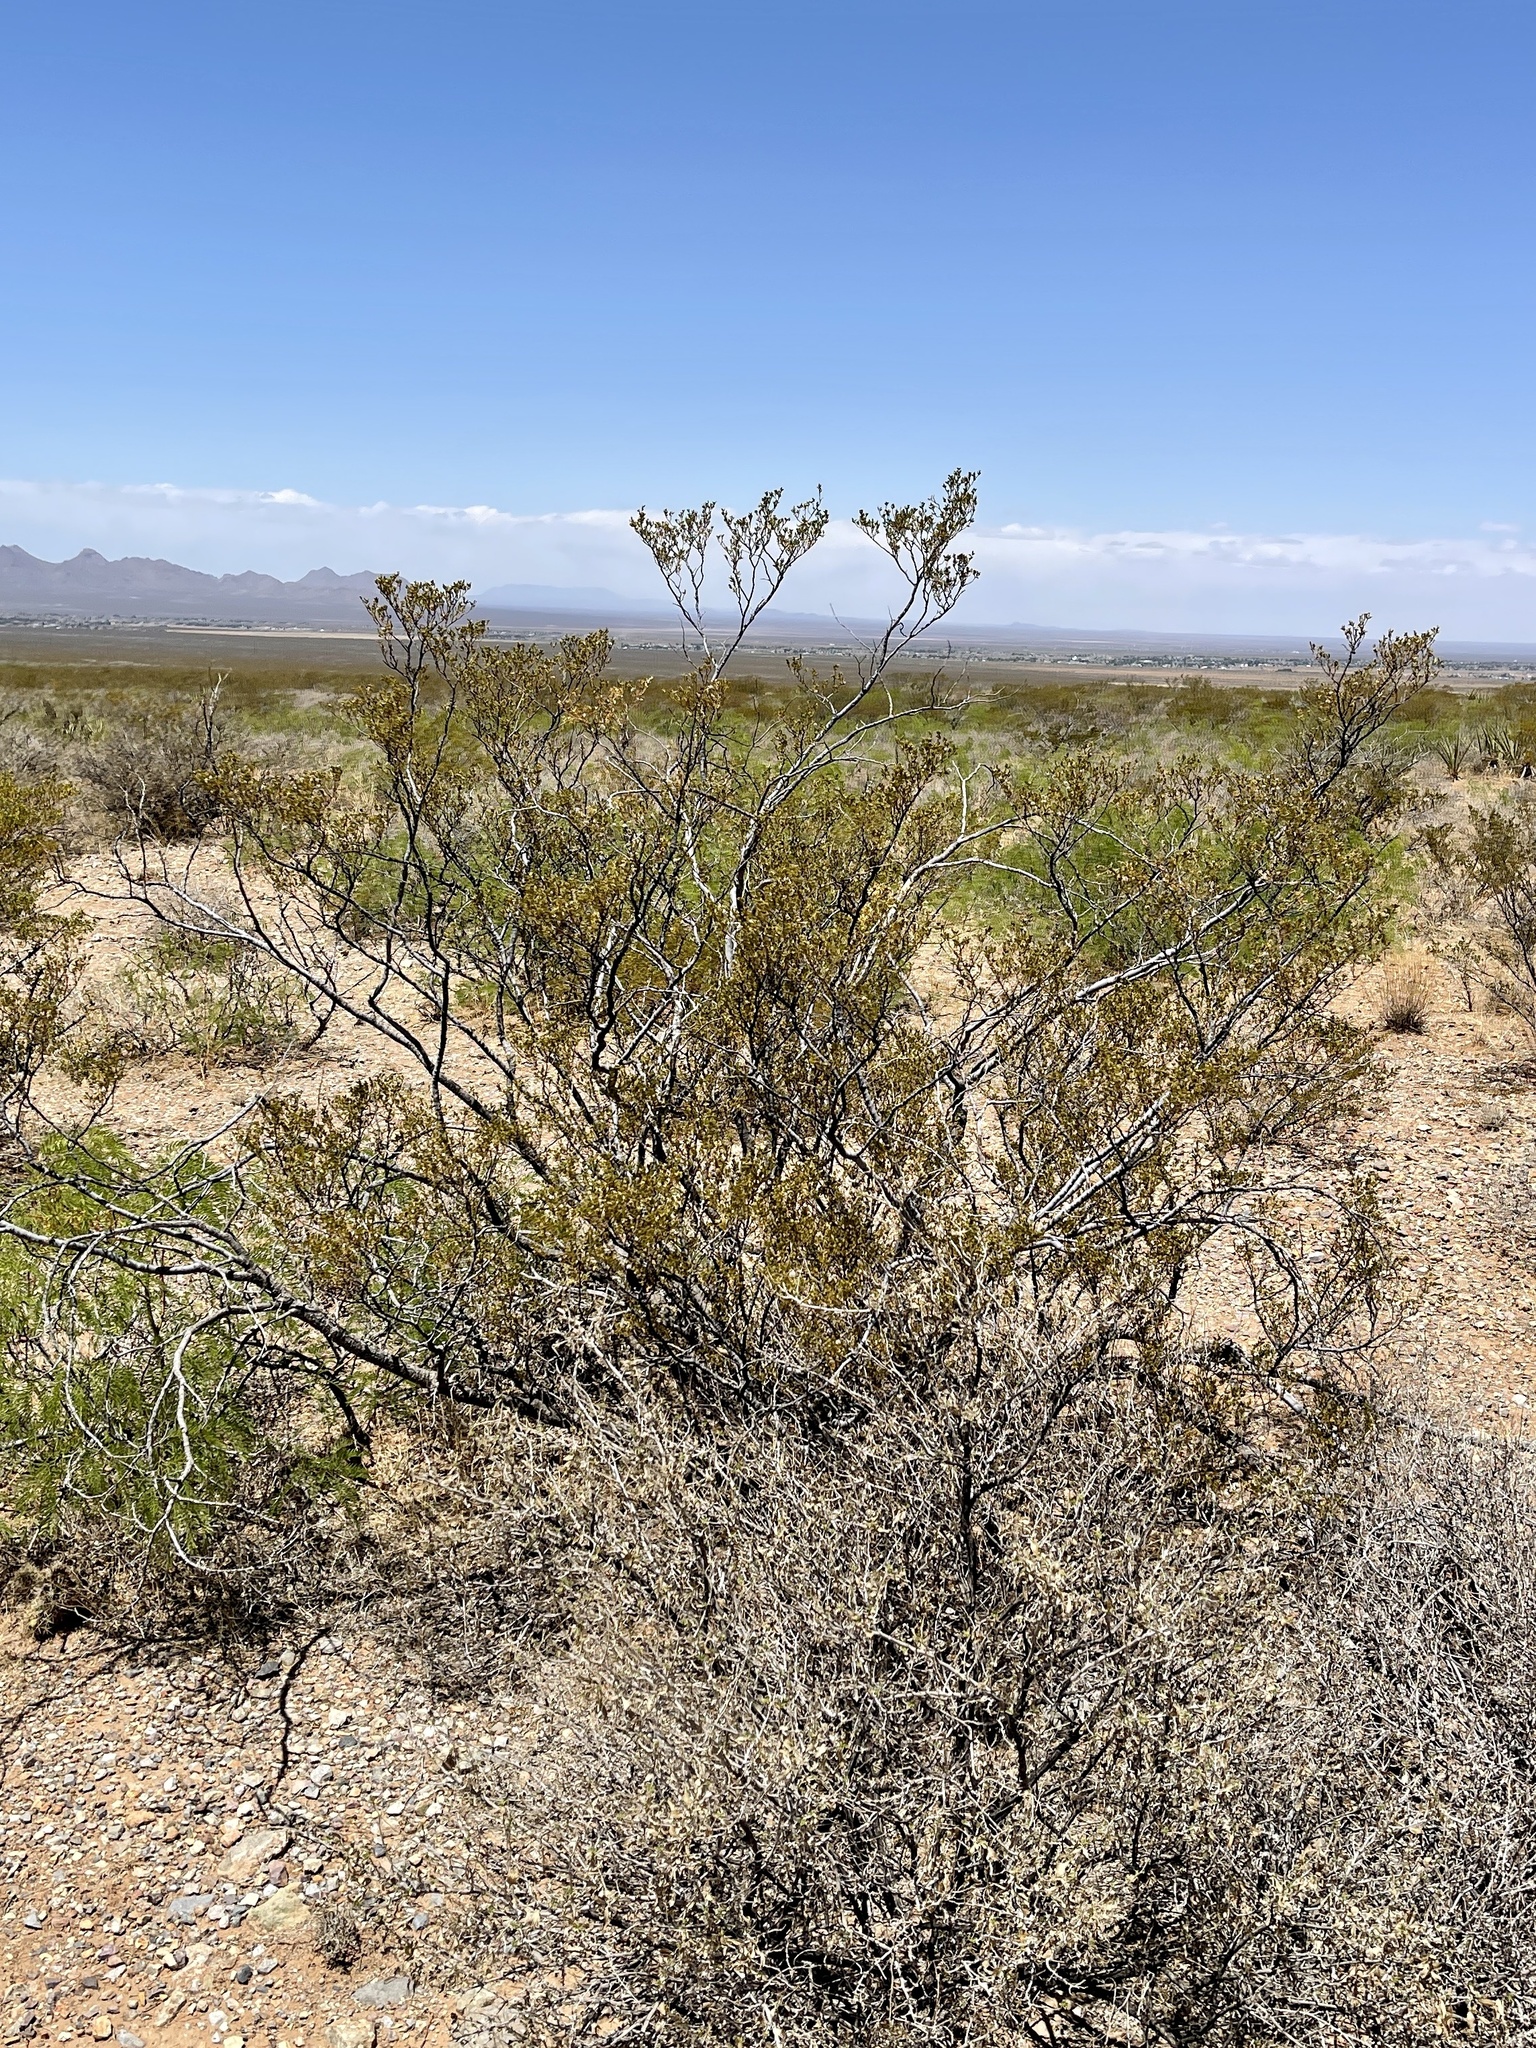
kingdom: Plantae
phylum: Tracheophyta
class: Magnoliopsida
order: Zygophyllales
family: Zygophyllaceae
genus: Larrea
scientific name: Larrea tridentata
